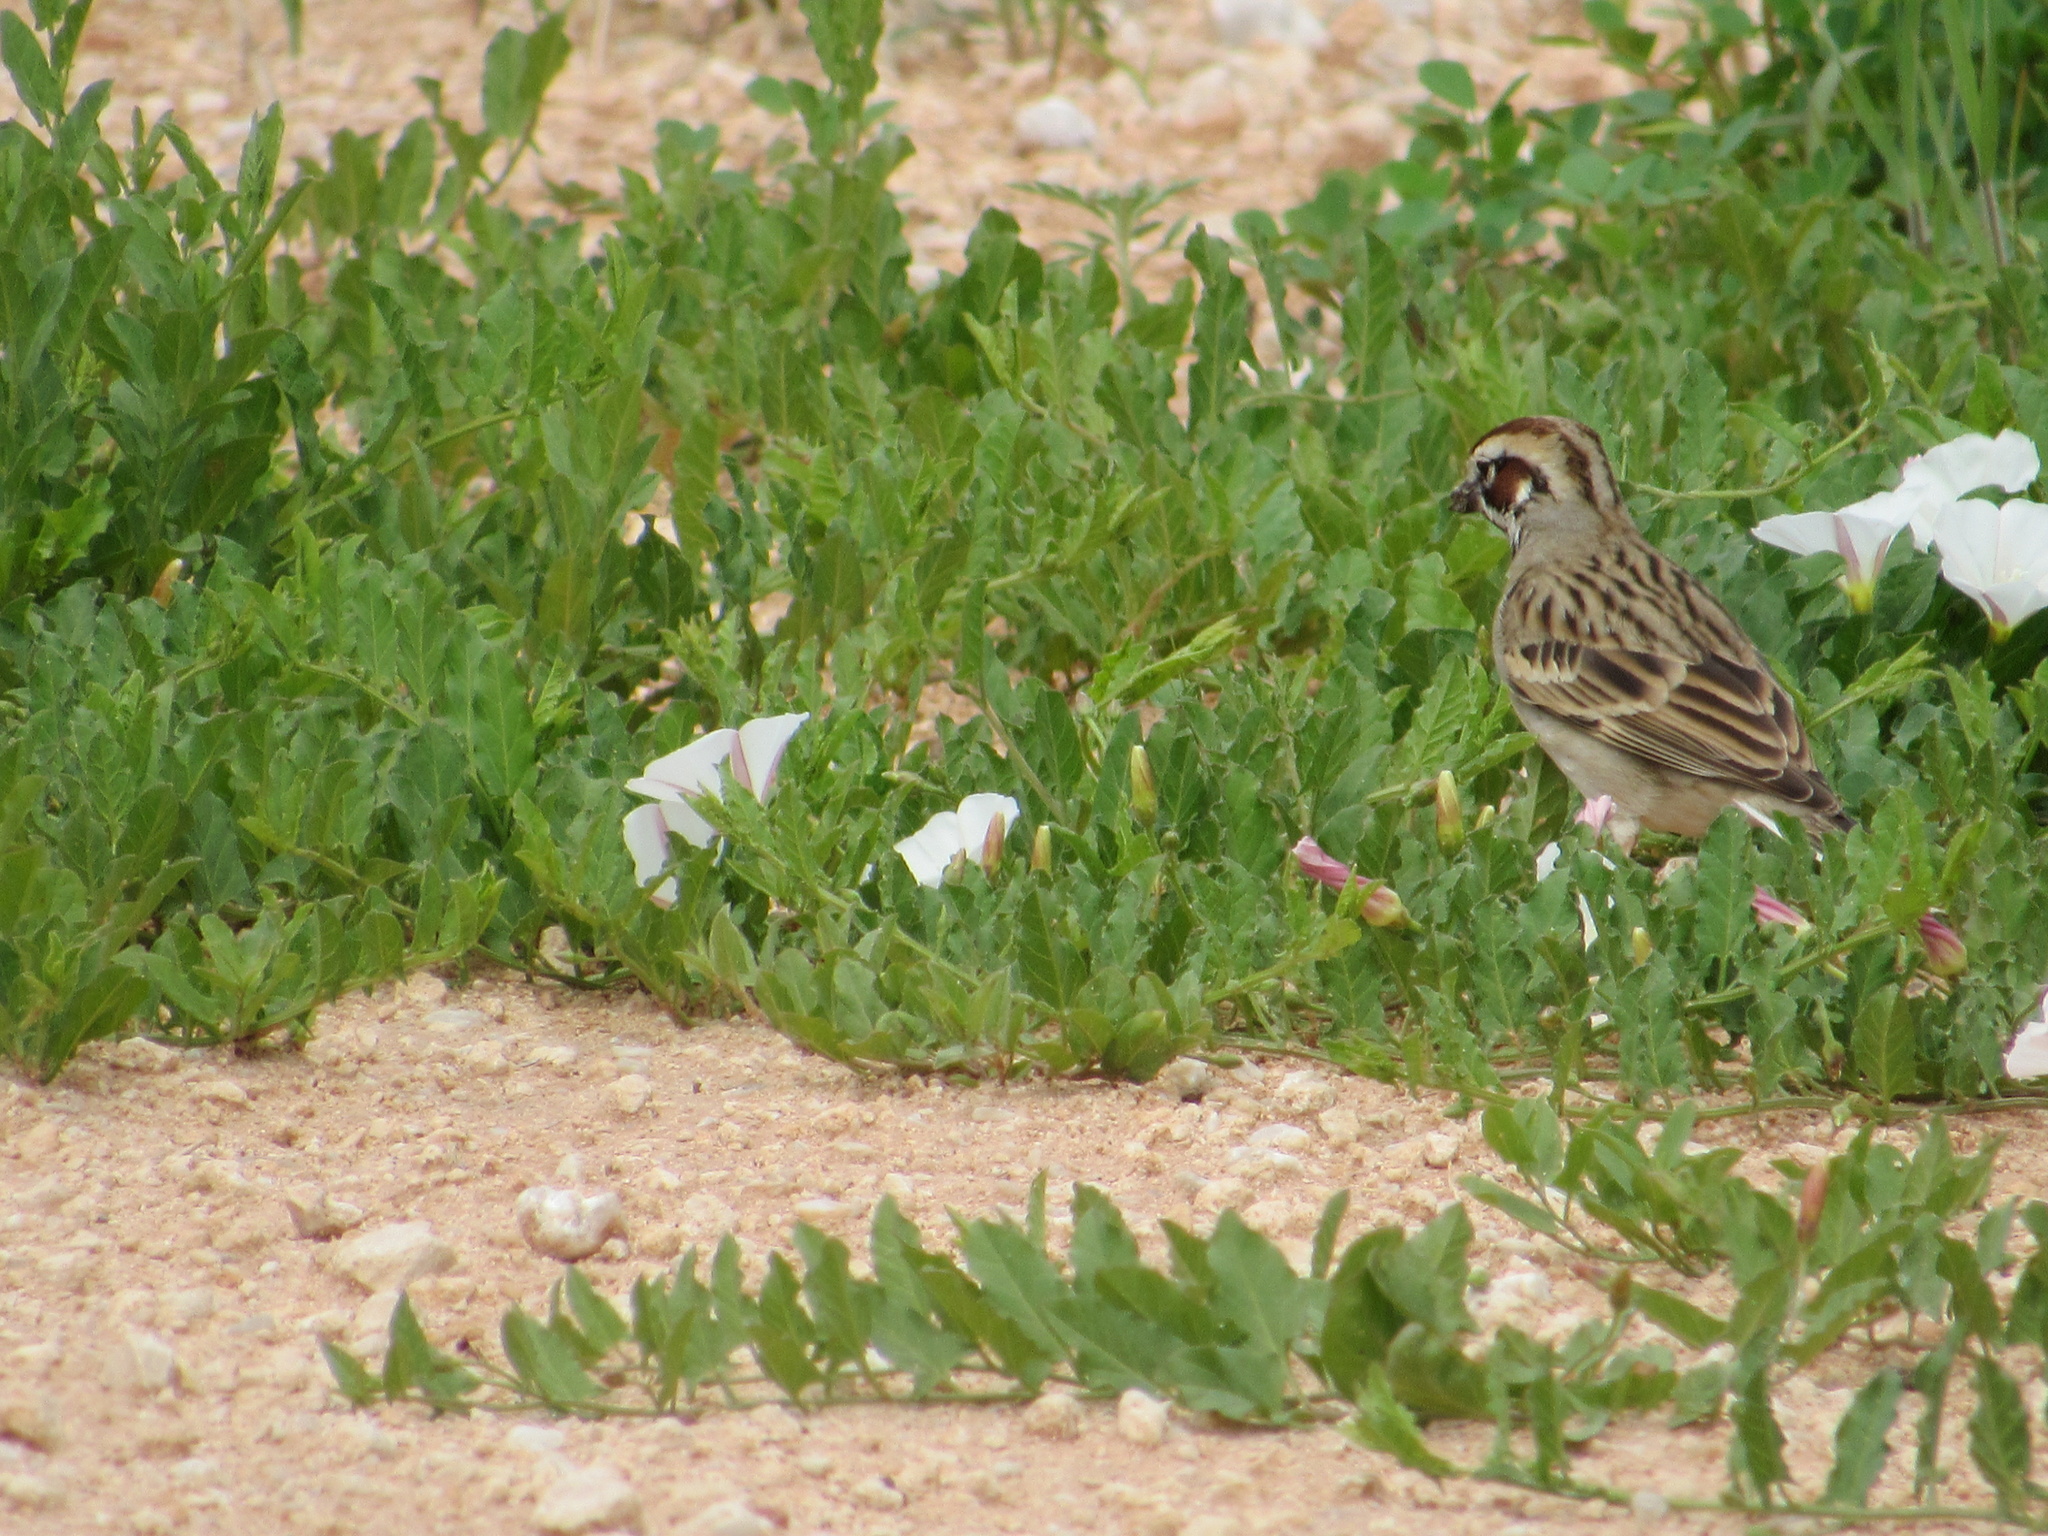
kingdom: Animalia
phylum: Chordata
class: Aves
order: Passeriformes
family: Passerellidae
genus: Chondestes
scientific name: Chondestes grammacus
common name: Lark sparrow
